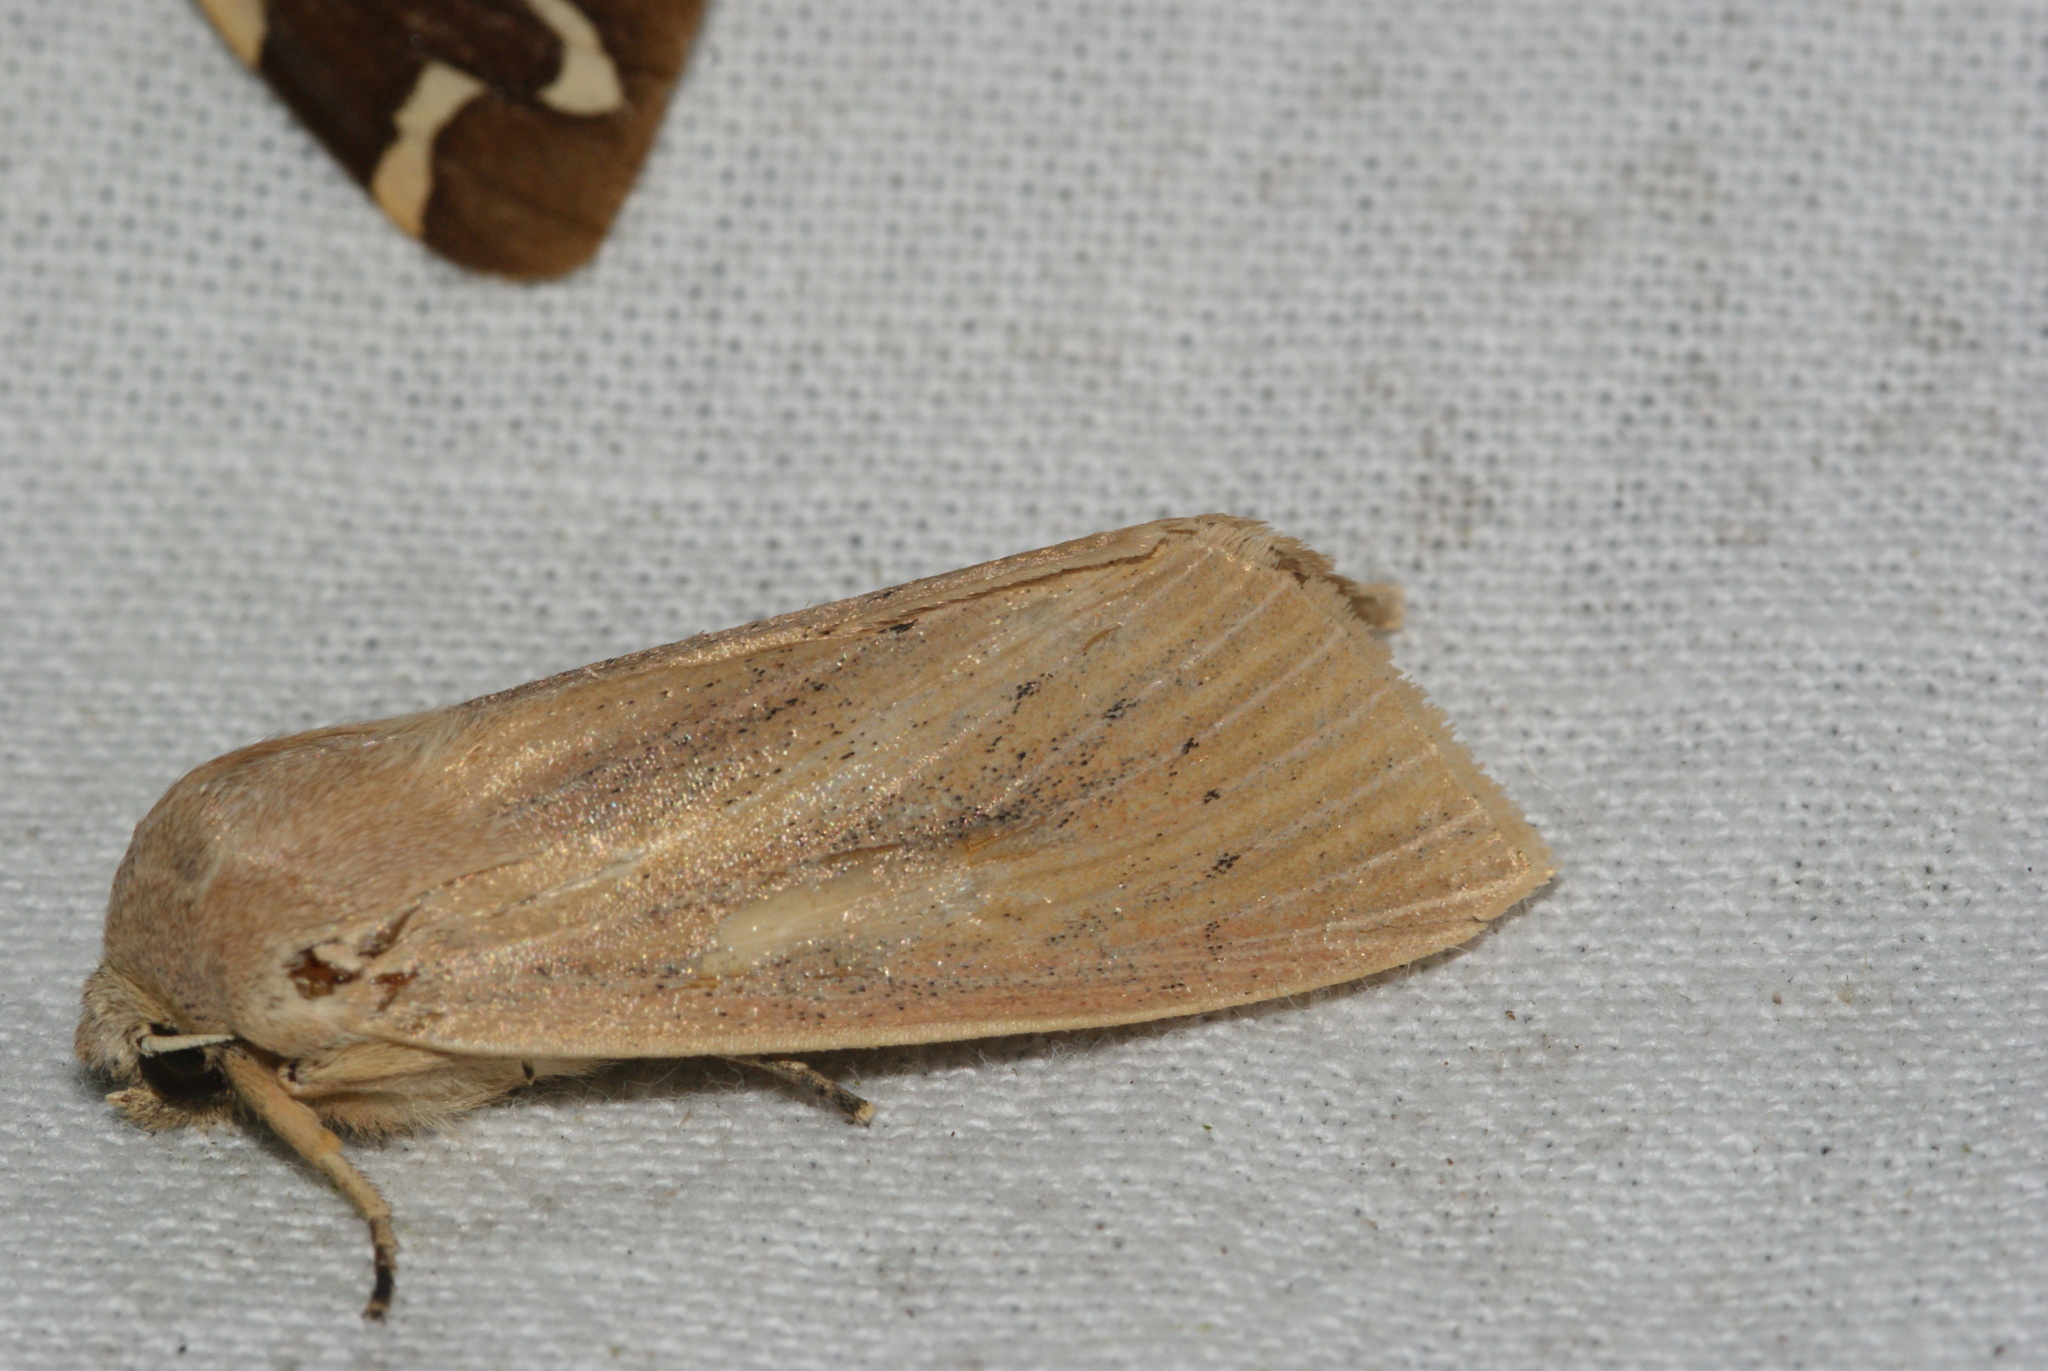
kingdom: Animalia
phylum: Arthropoda
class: Insecta
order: Lepidoptera
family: Noctuidae
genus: Rhizedra
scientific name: Rhizedra lutosa
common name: Large wainscot
